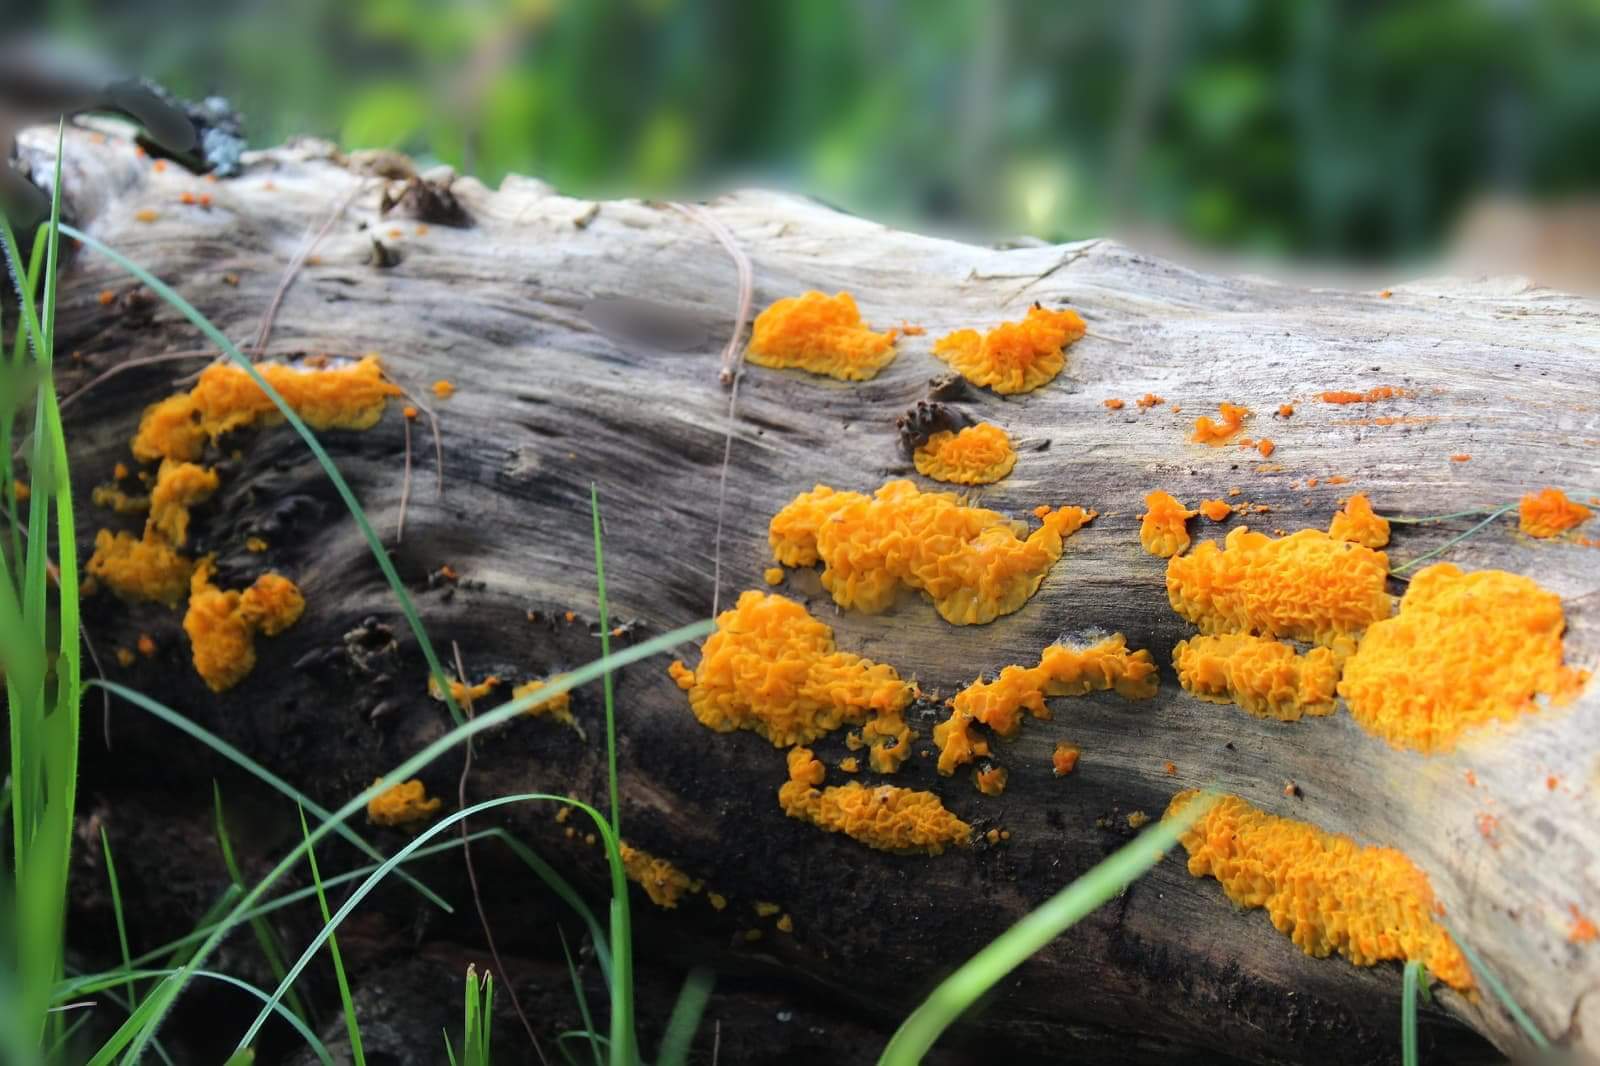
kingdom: Fungi
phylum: Basidiomycota
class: Dacrymycetes
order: Dacrymycetales
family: Dacrymycetaceae
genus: Dacrymyces
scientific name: Dacrymyces chrysospermus
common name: Orange jelly spot
